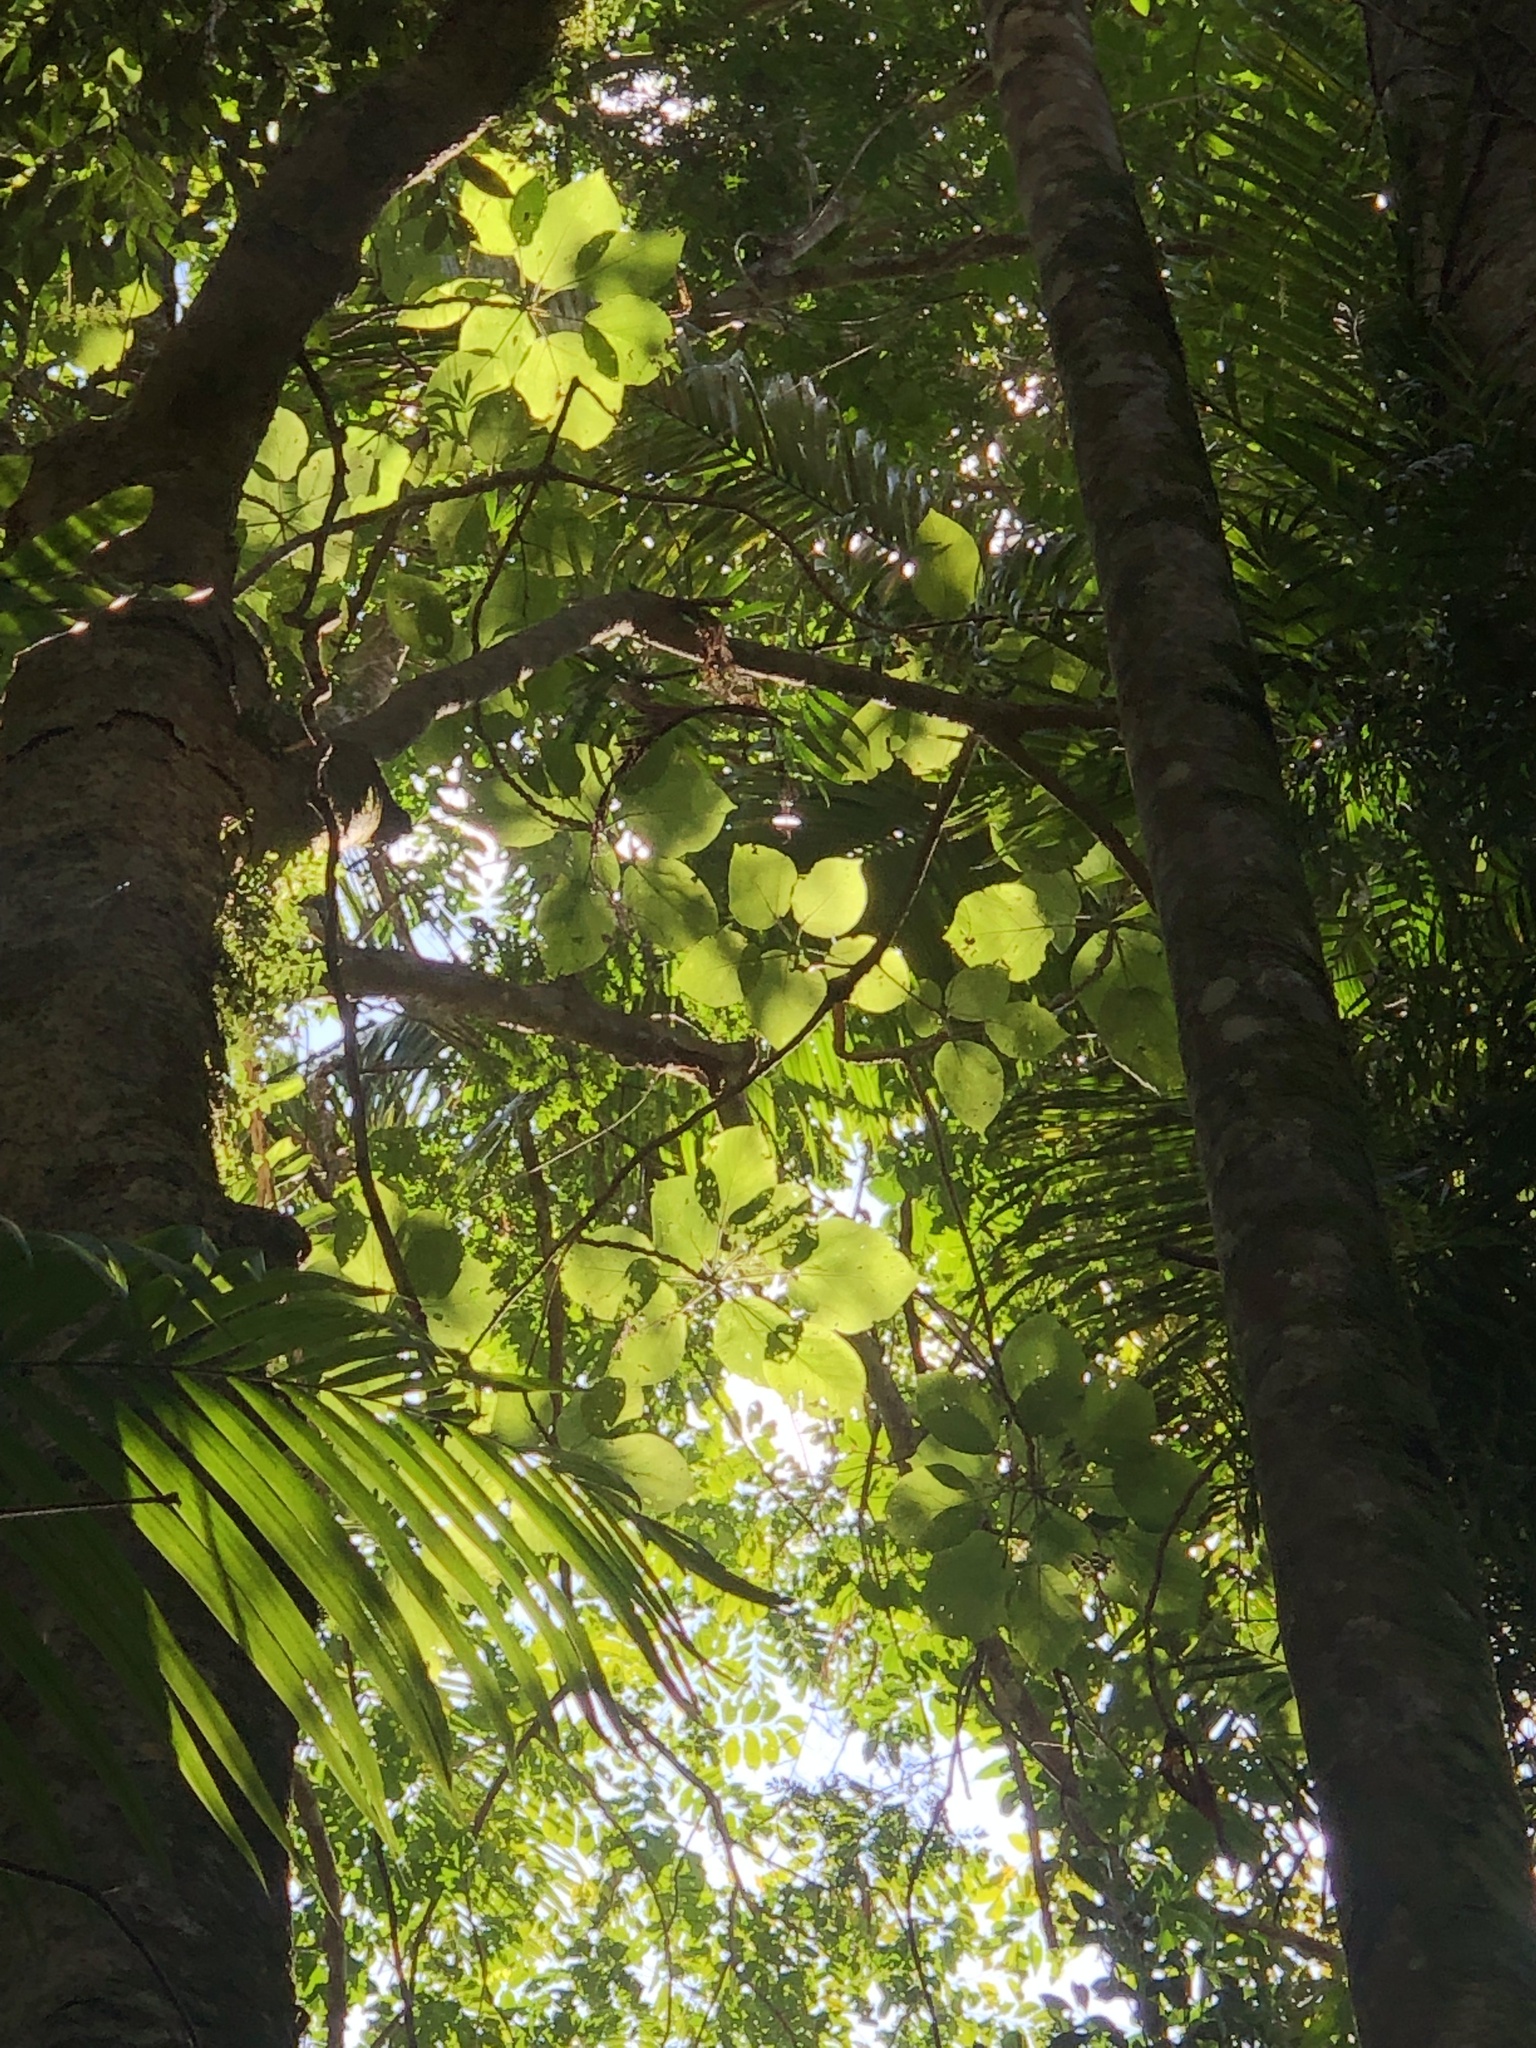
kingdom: Plantae
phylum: Tracheophyta
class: Magnoliopsida
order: Rosales
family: Urticaceae
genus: Dendrocnide
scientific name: Dendrocnide excelsa
